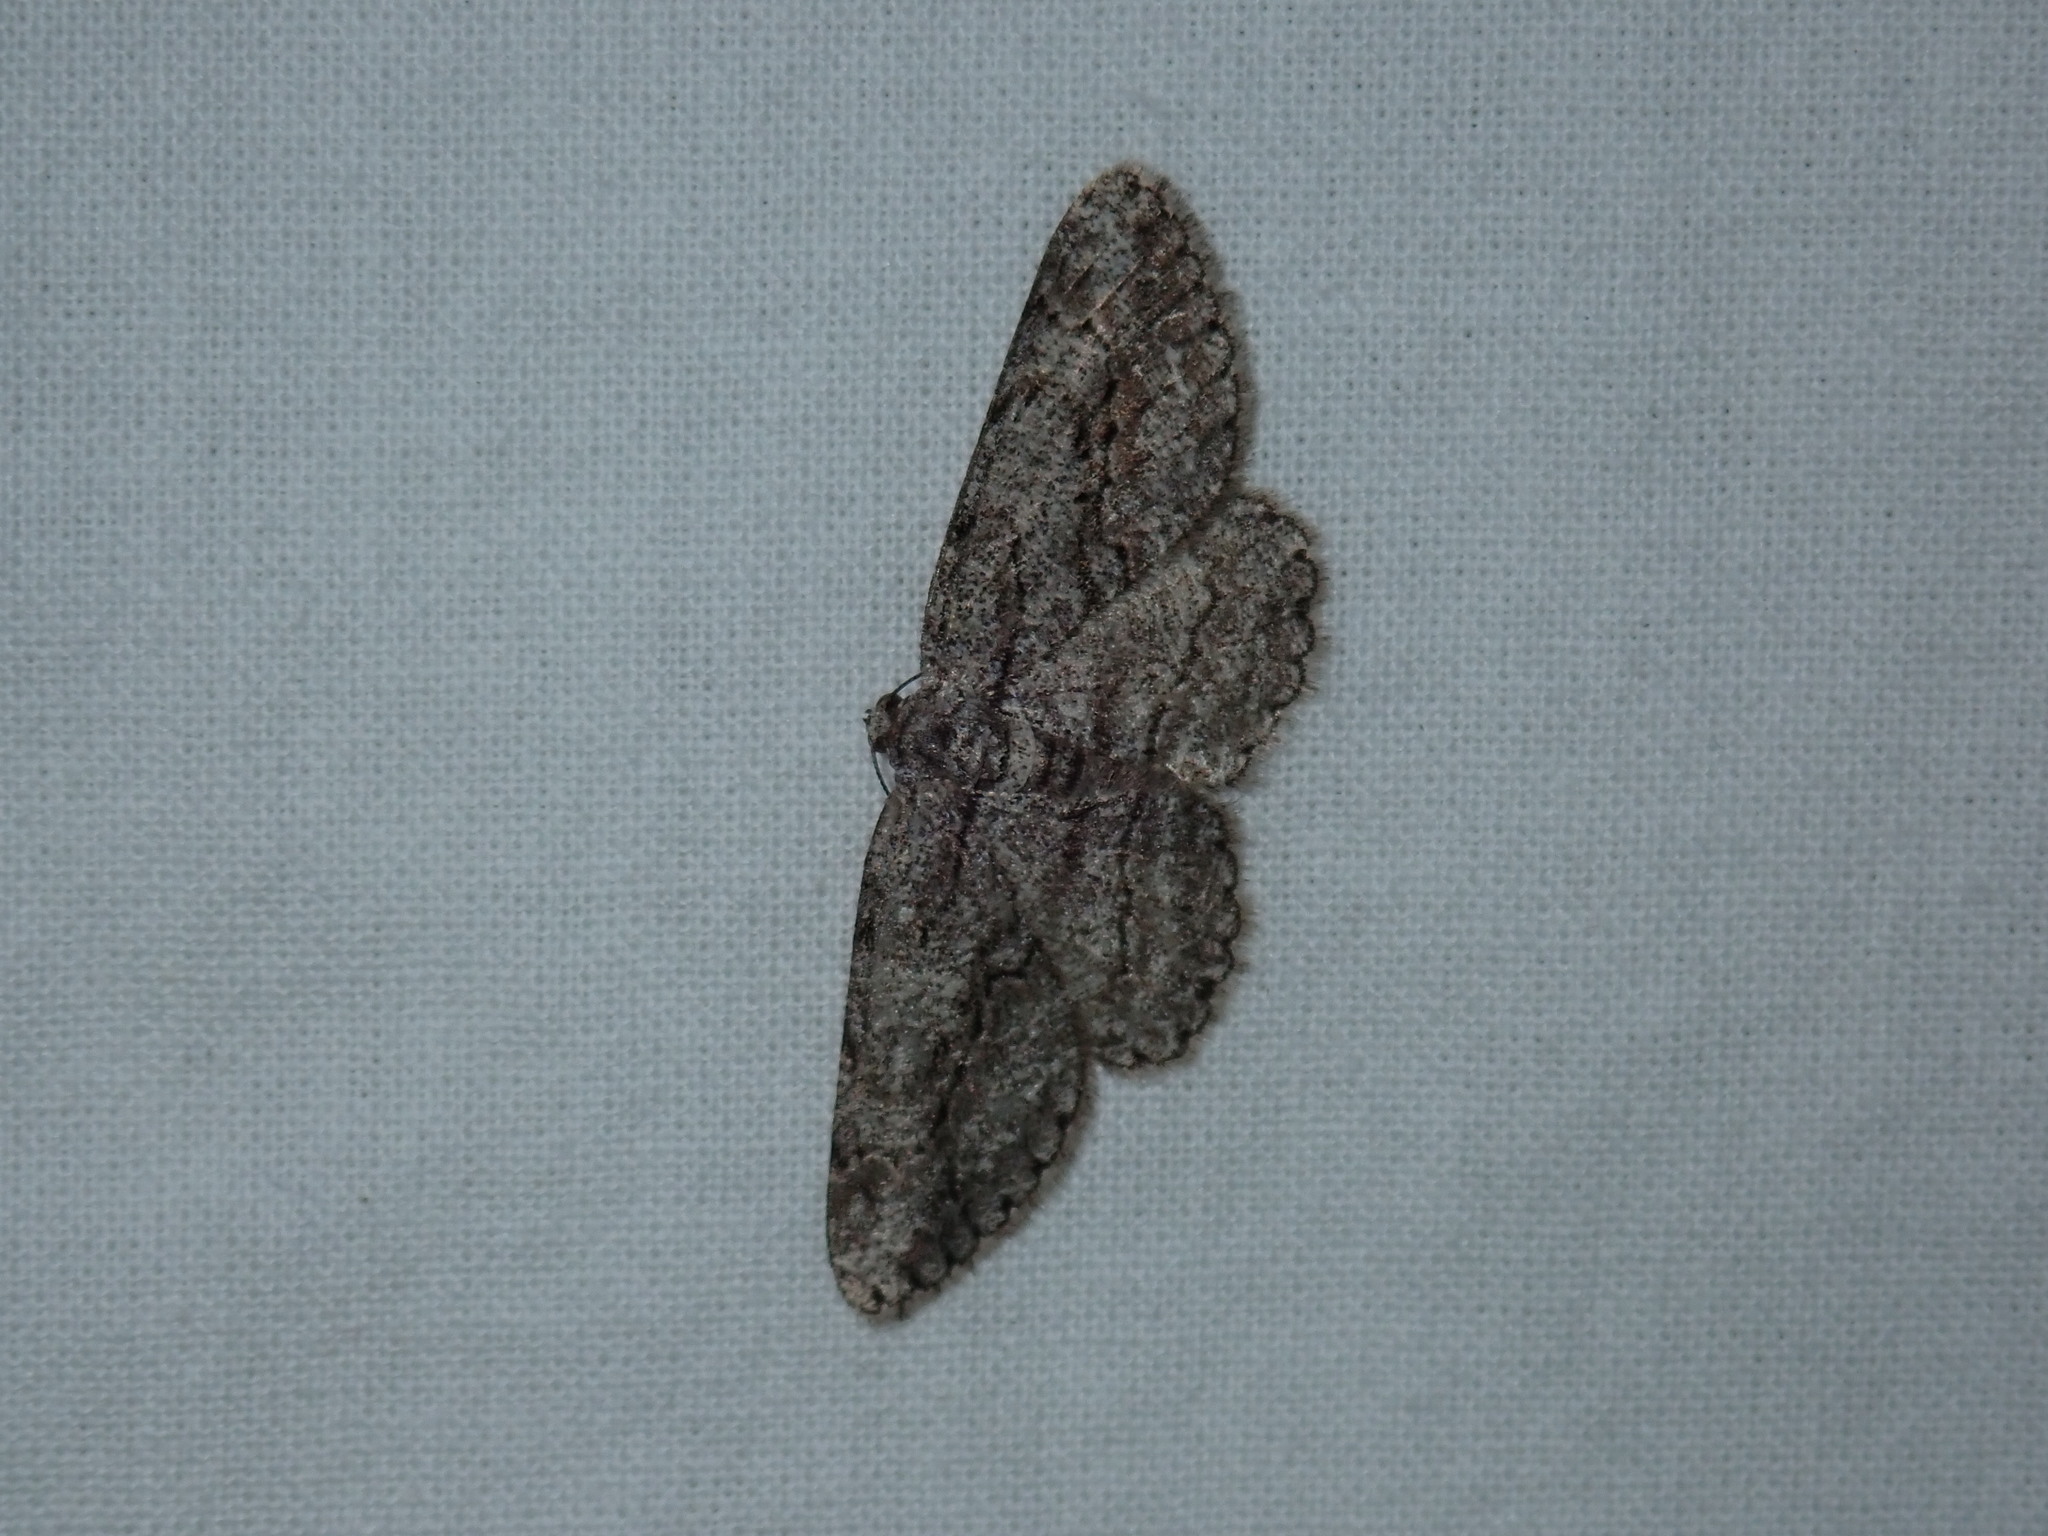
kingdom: Animalia
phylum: Arthropoda
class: Insecta
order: Lepidoptera
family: Geometridae
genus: Anavitrinella
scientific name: Anavitrinella pampinaria
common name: Common gray
